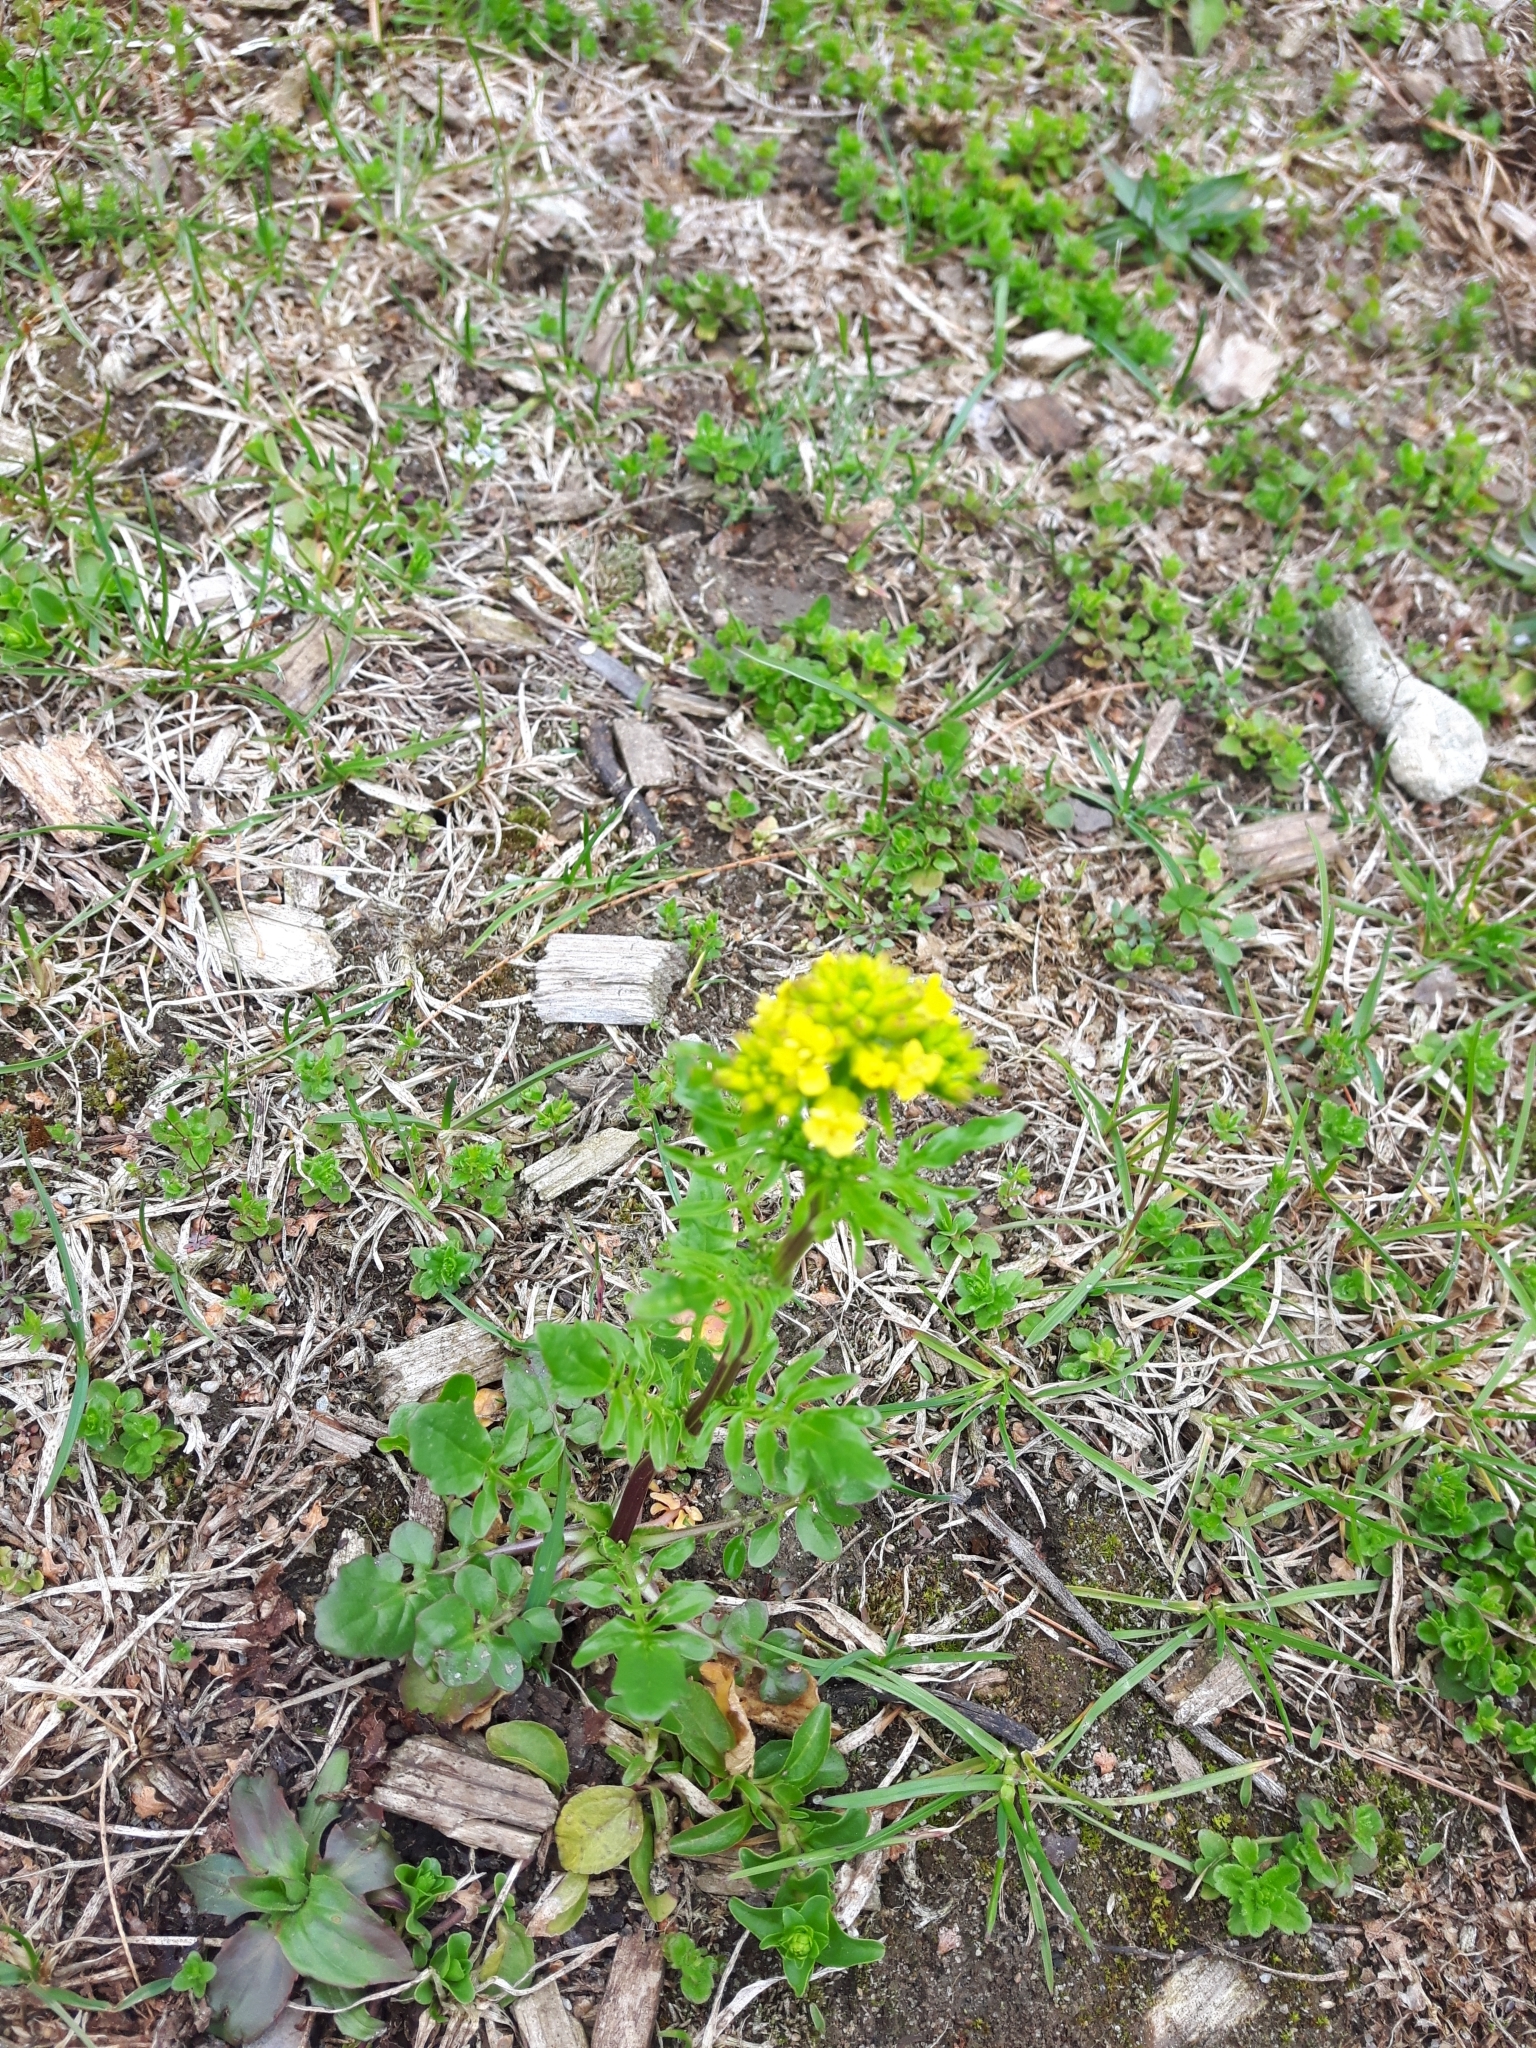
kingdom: Plantae
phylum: Tracheophyta
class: Magnoliopsida
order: Brassicales
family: Brassicaceae
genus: Barbarea
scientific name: Barbarea vulgaris
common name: Cressy-greens
